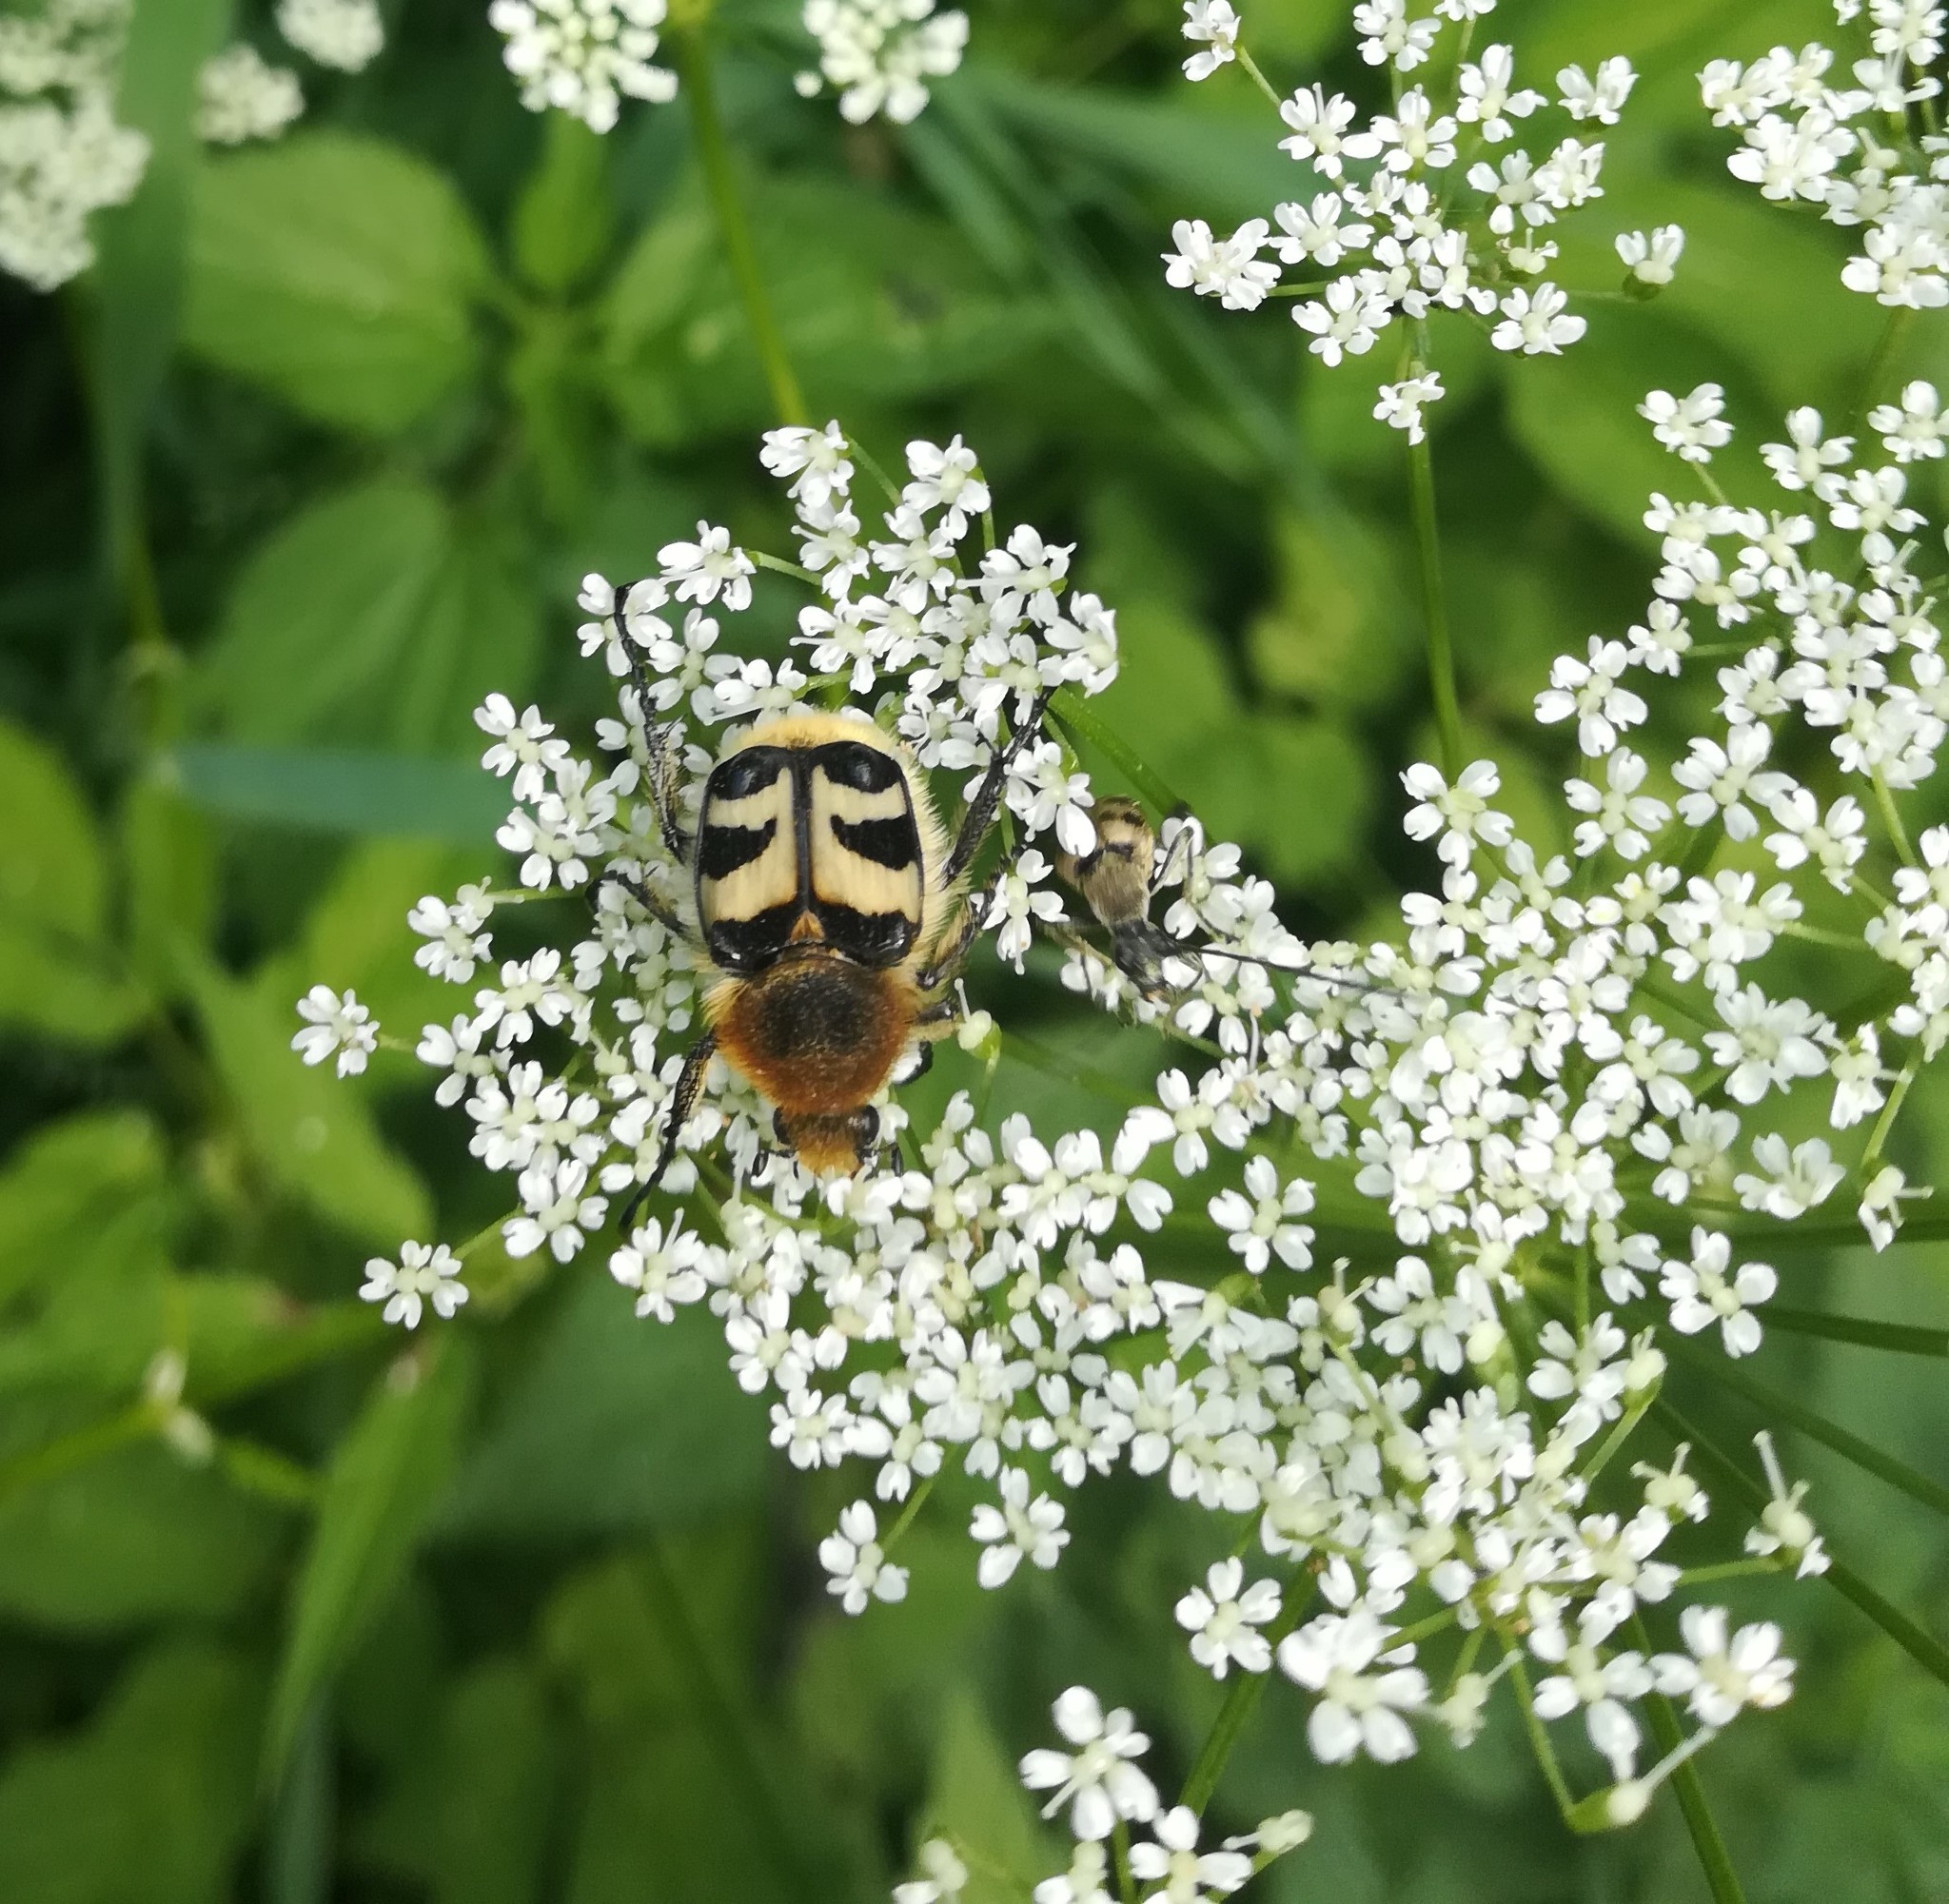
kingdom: Animalia
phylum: Arthropoda
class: Insecta
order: Coleoptera
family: Scarabaeidae
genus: Trichius
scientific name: Trichius fasciatus
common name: Bee beetle
